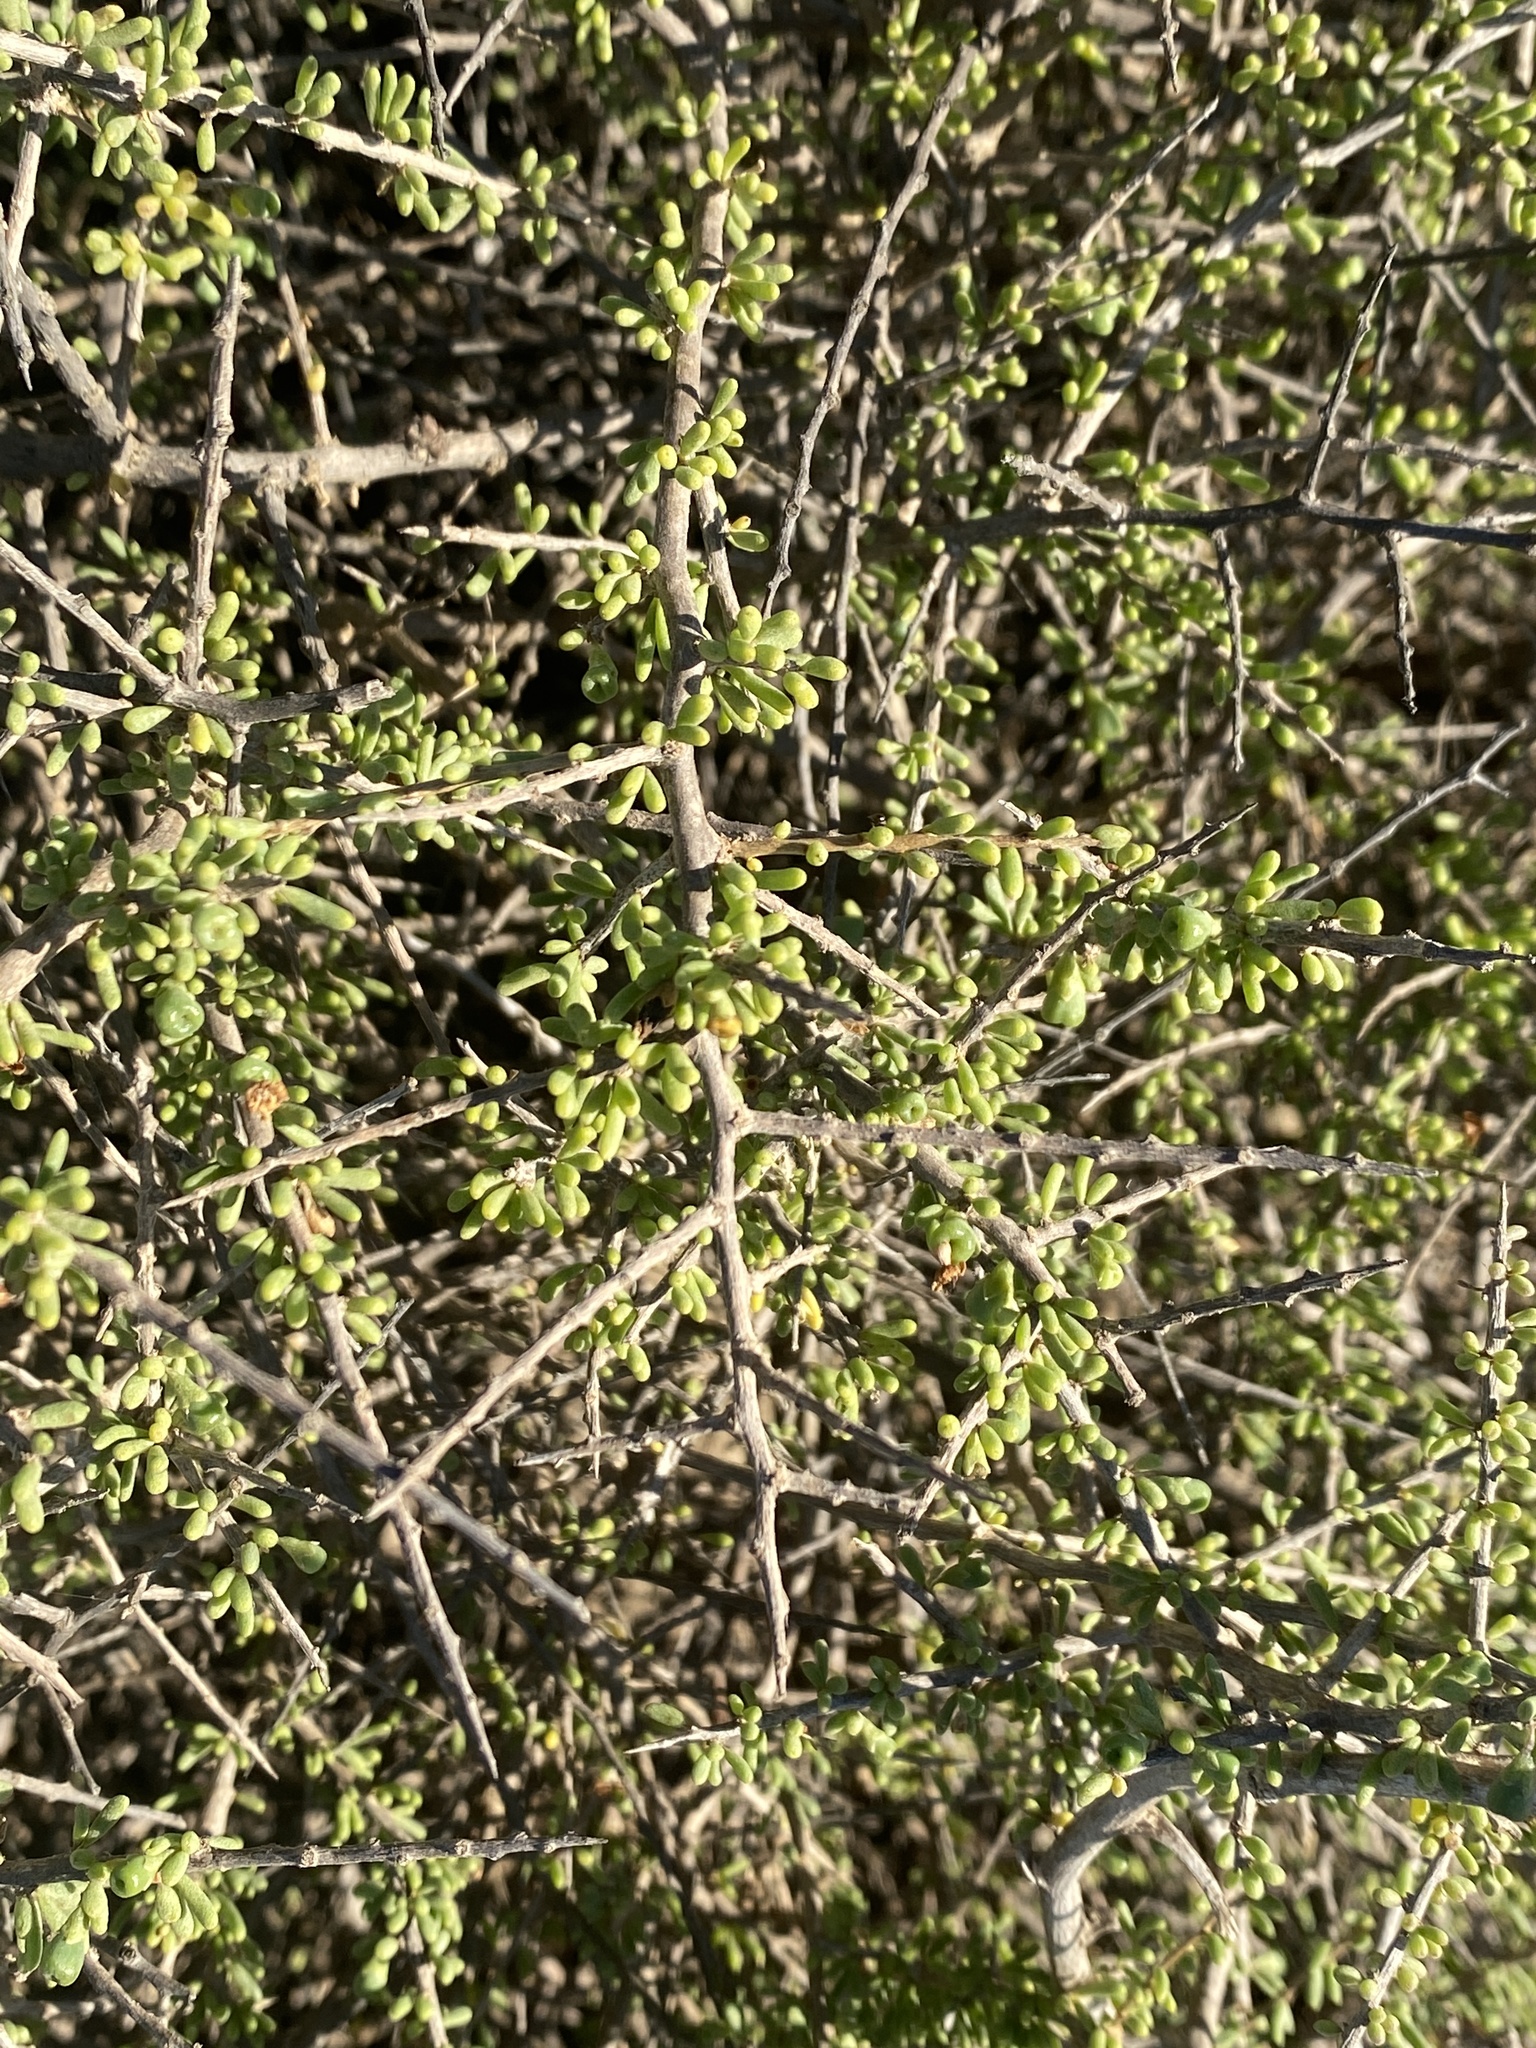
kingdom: Plantae
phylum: Tracheophyta
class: Magnoliopsida
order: Solanales
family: Solanaceae
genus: Lycium
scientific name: Lycium californicum
